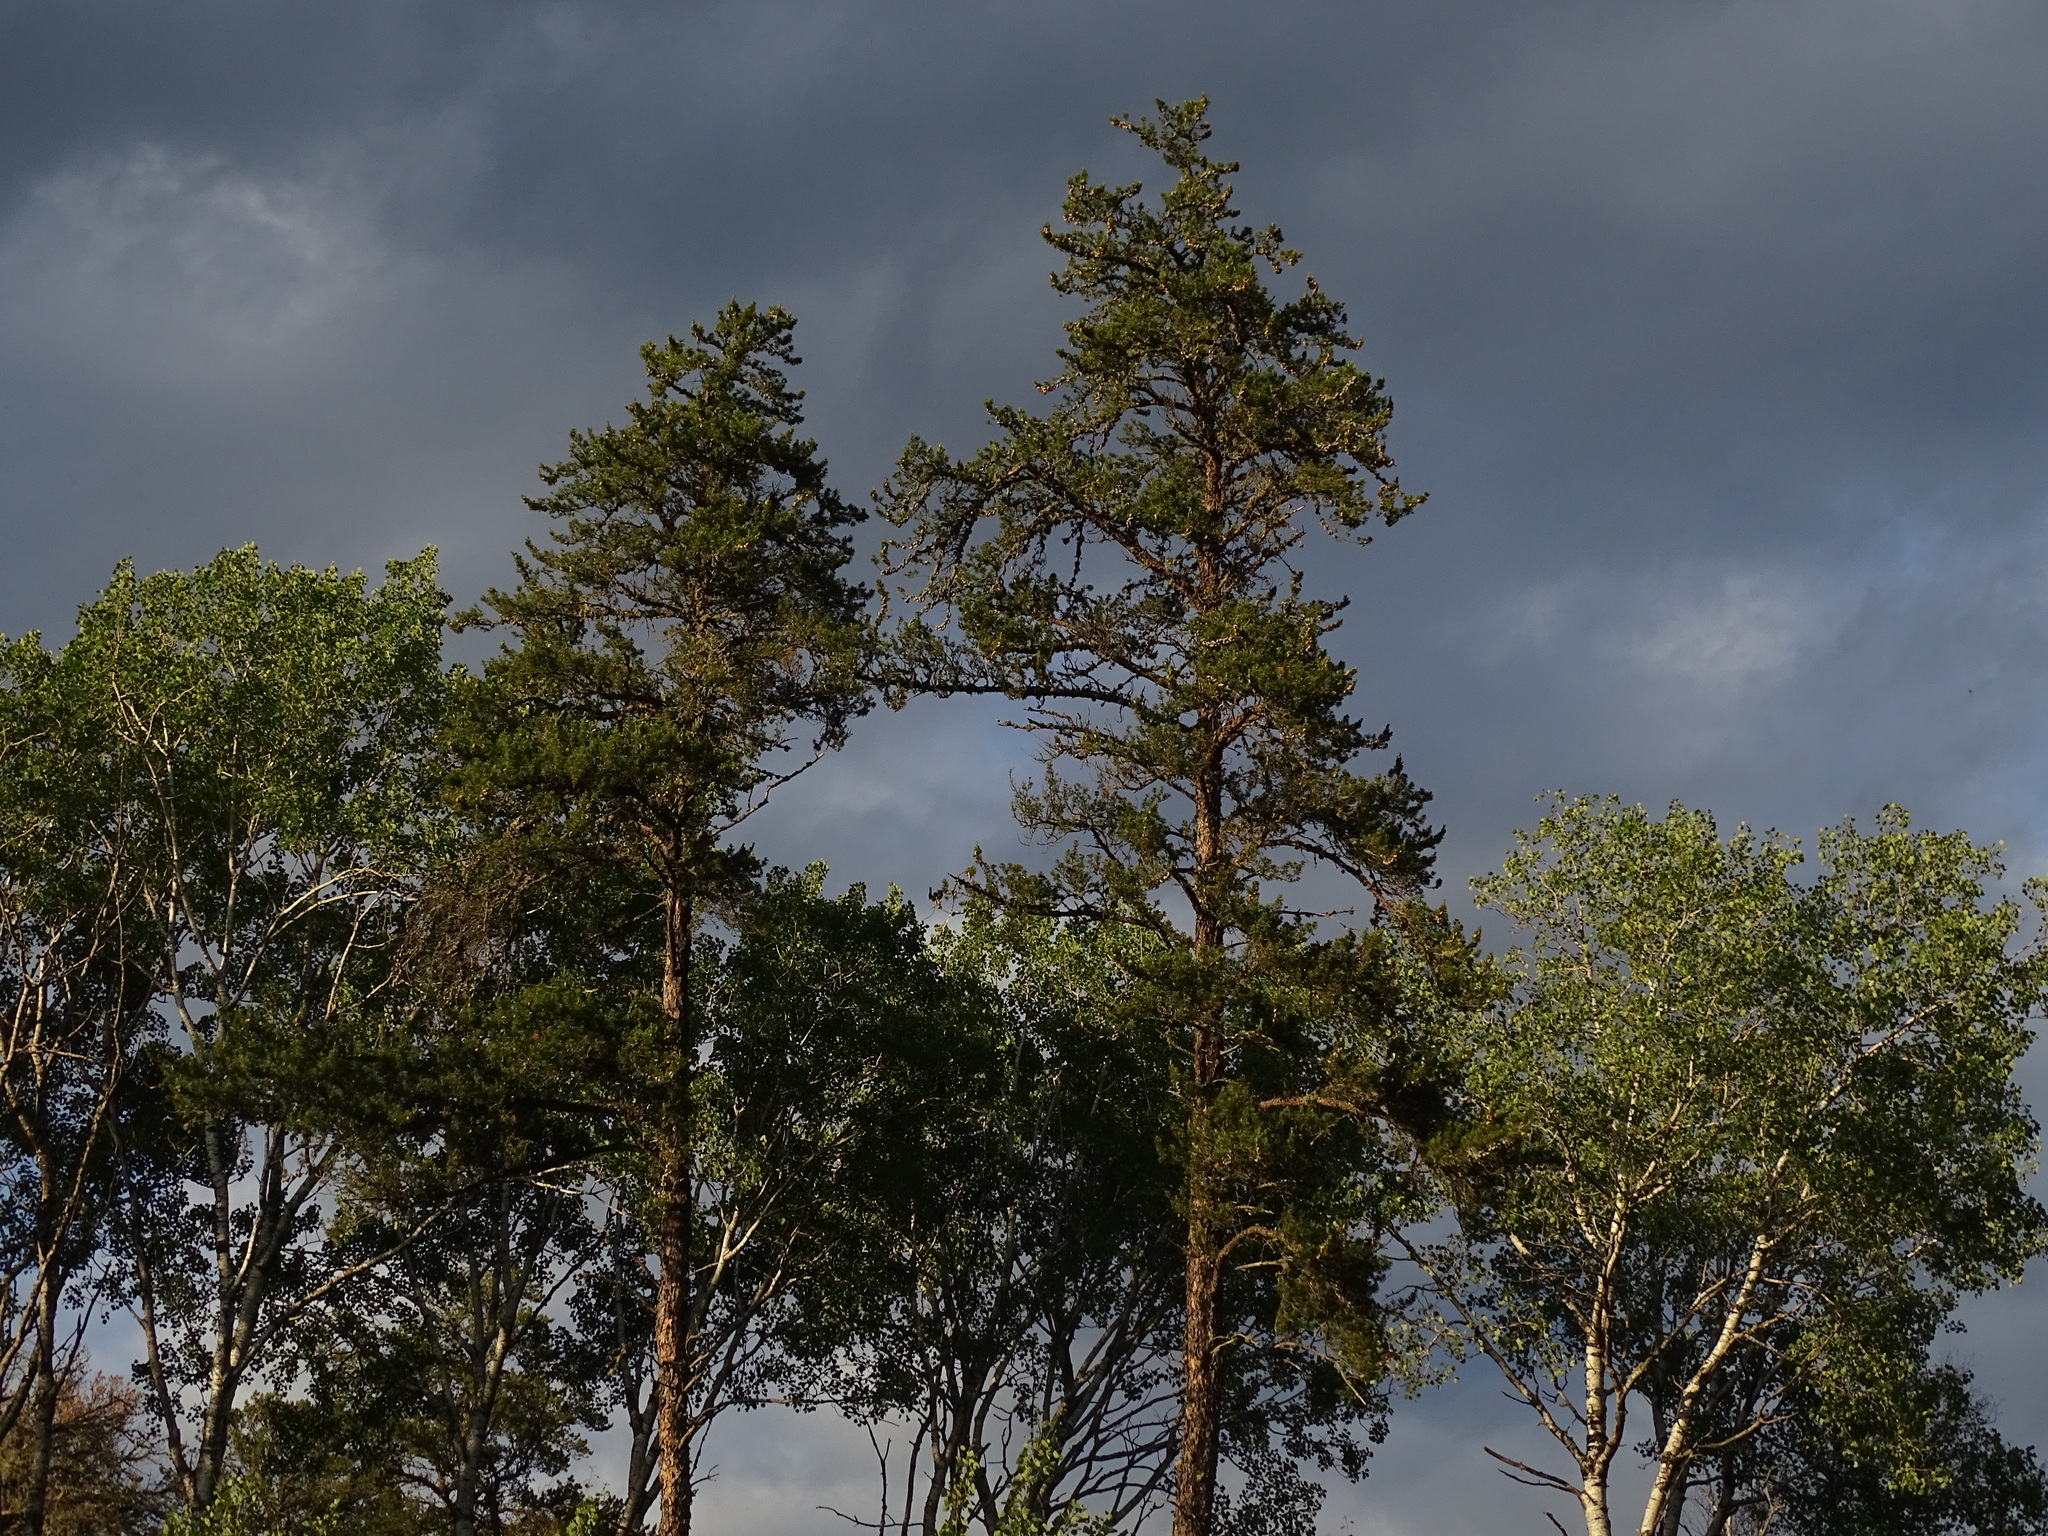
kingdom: Plantae
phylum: Tracheophyta
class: Pinopsida
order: Pinales
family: Pinaceae
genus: Pinus
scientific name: Pinus banksiana
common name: Jack pine
